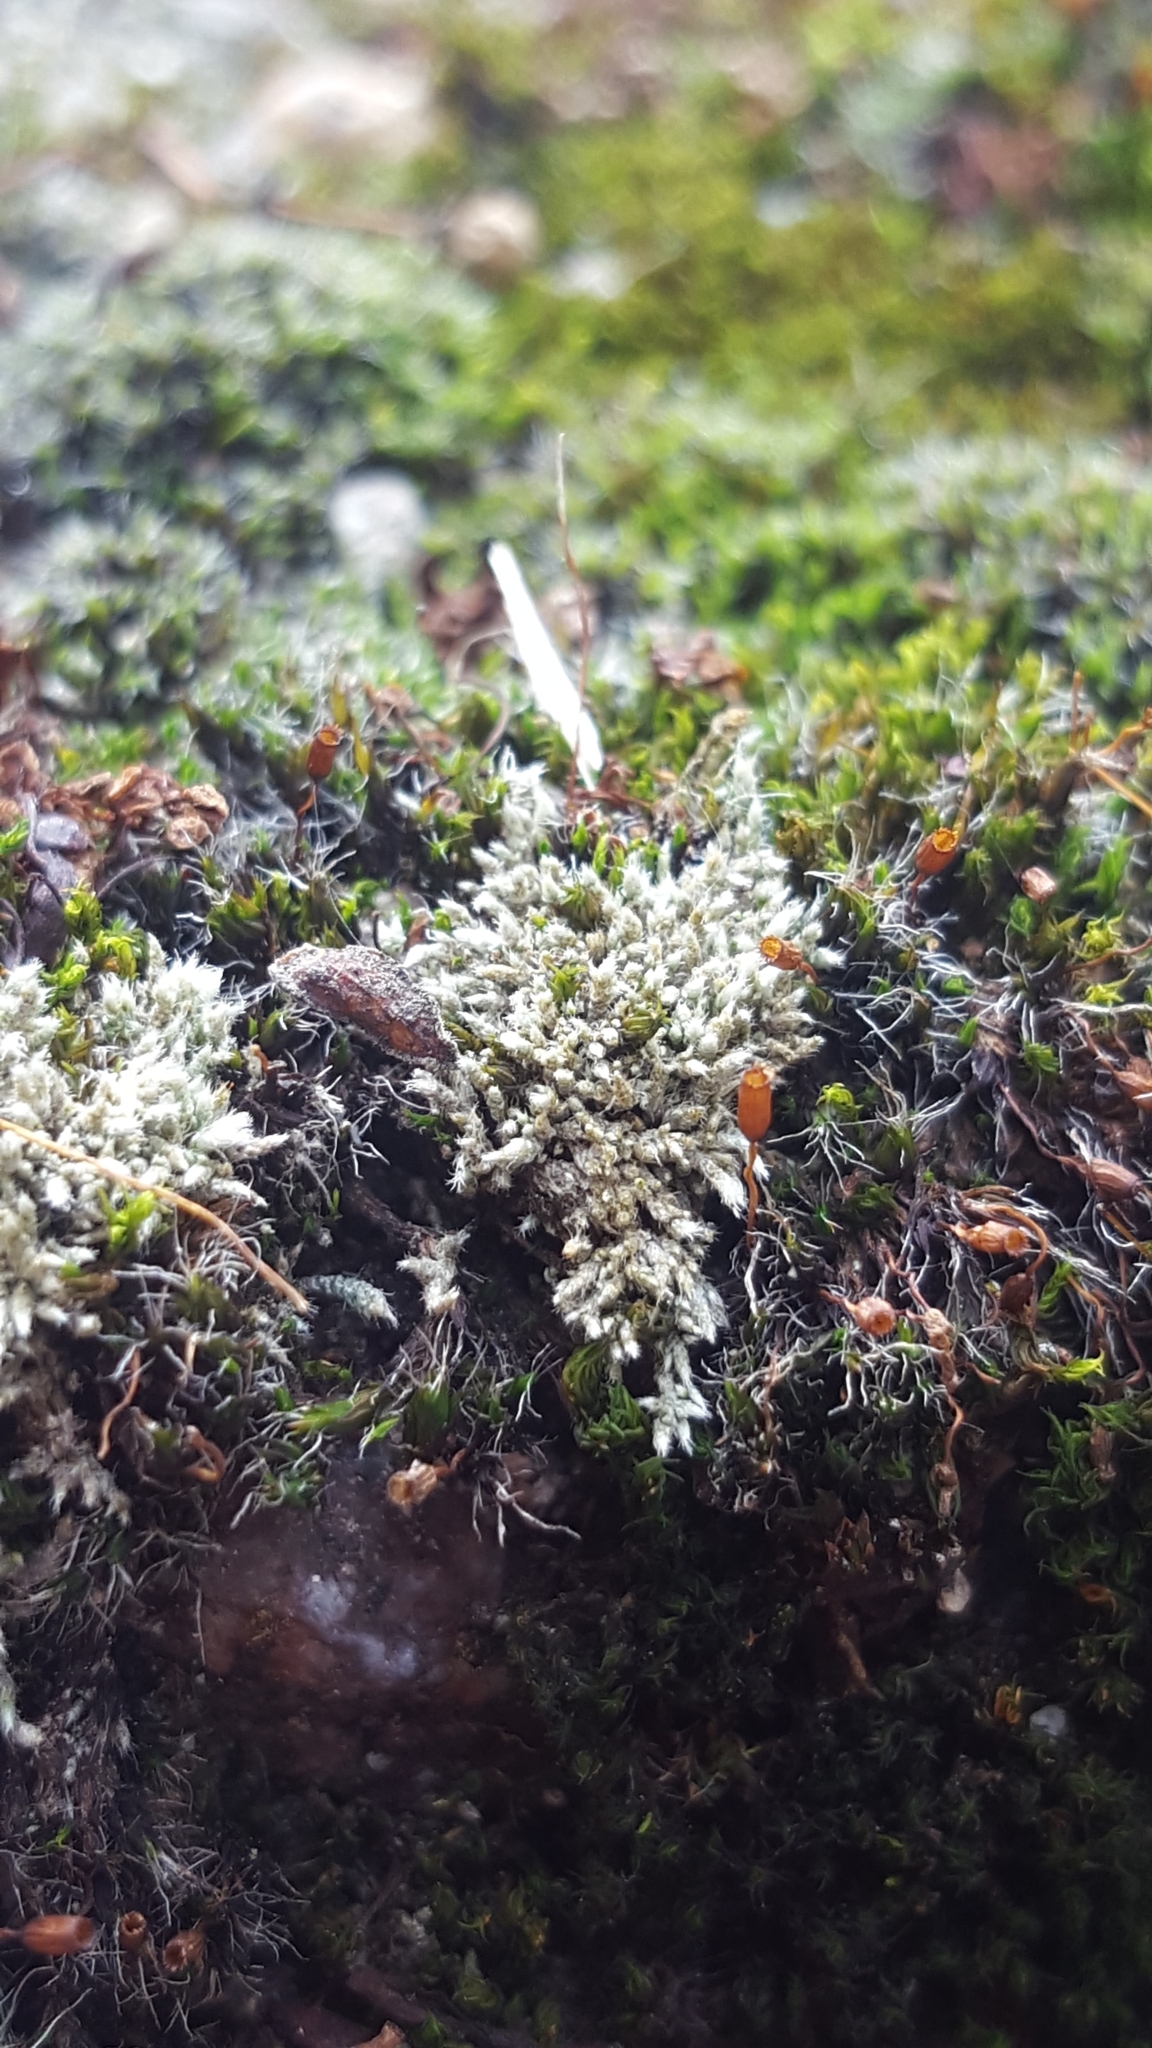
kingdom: Plantae
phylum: Bryophyta
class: Bryopsida
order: Bryales
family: Bryaceae
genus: Bryum
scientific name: Bryum argenteum
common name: Silver-moss
